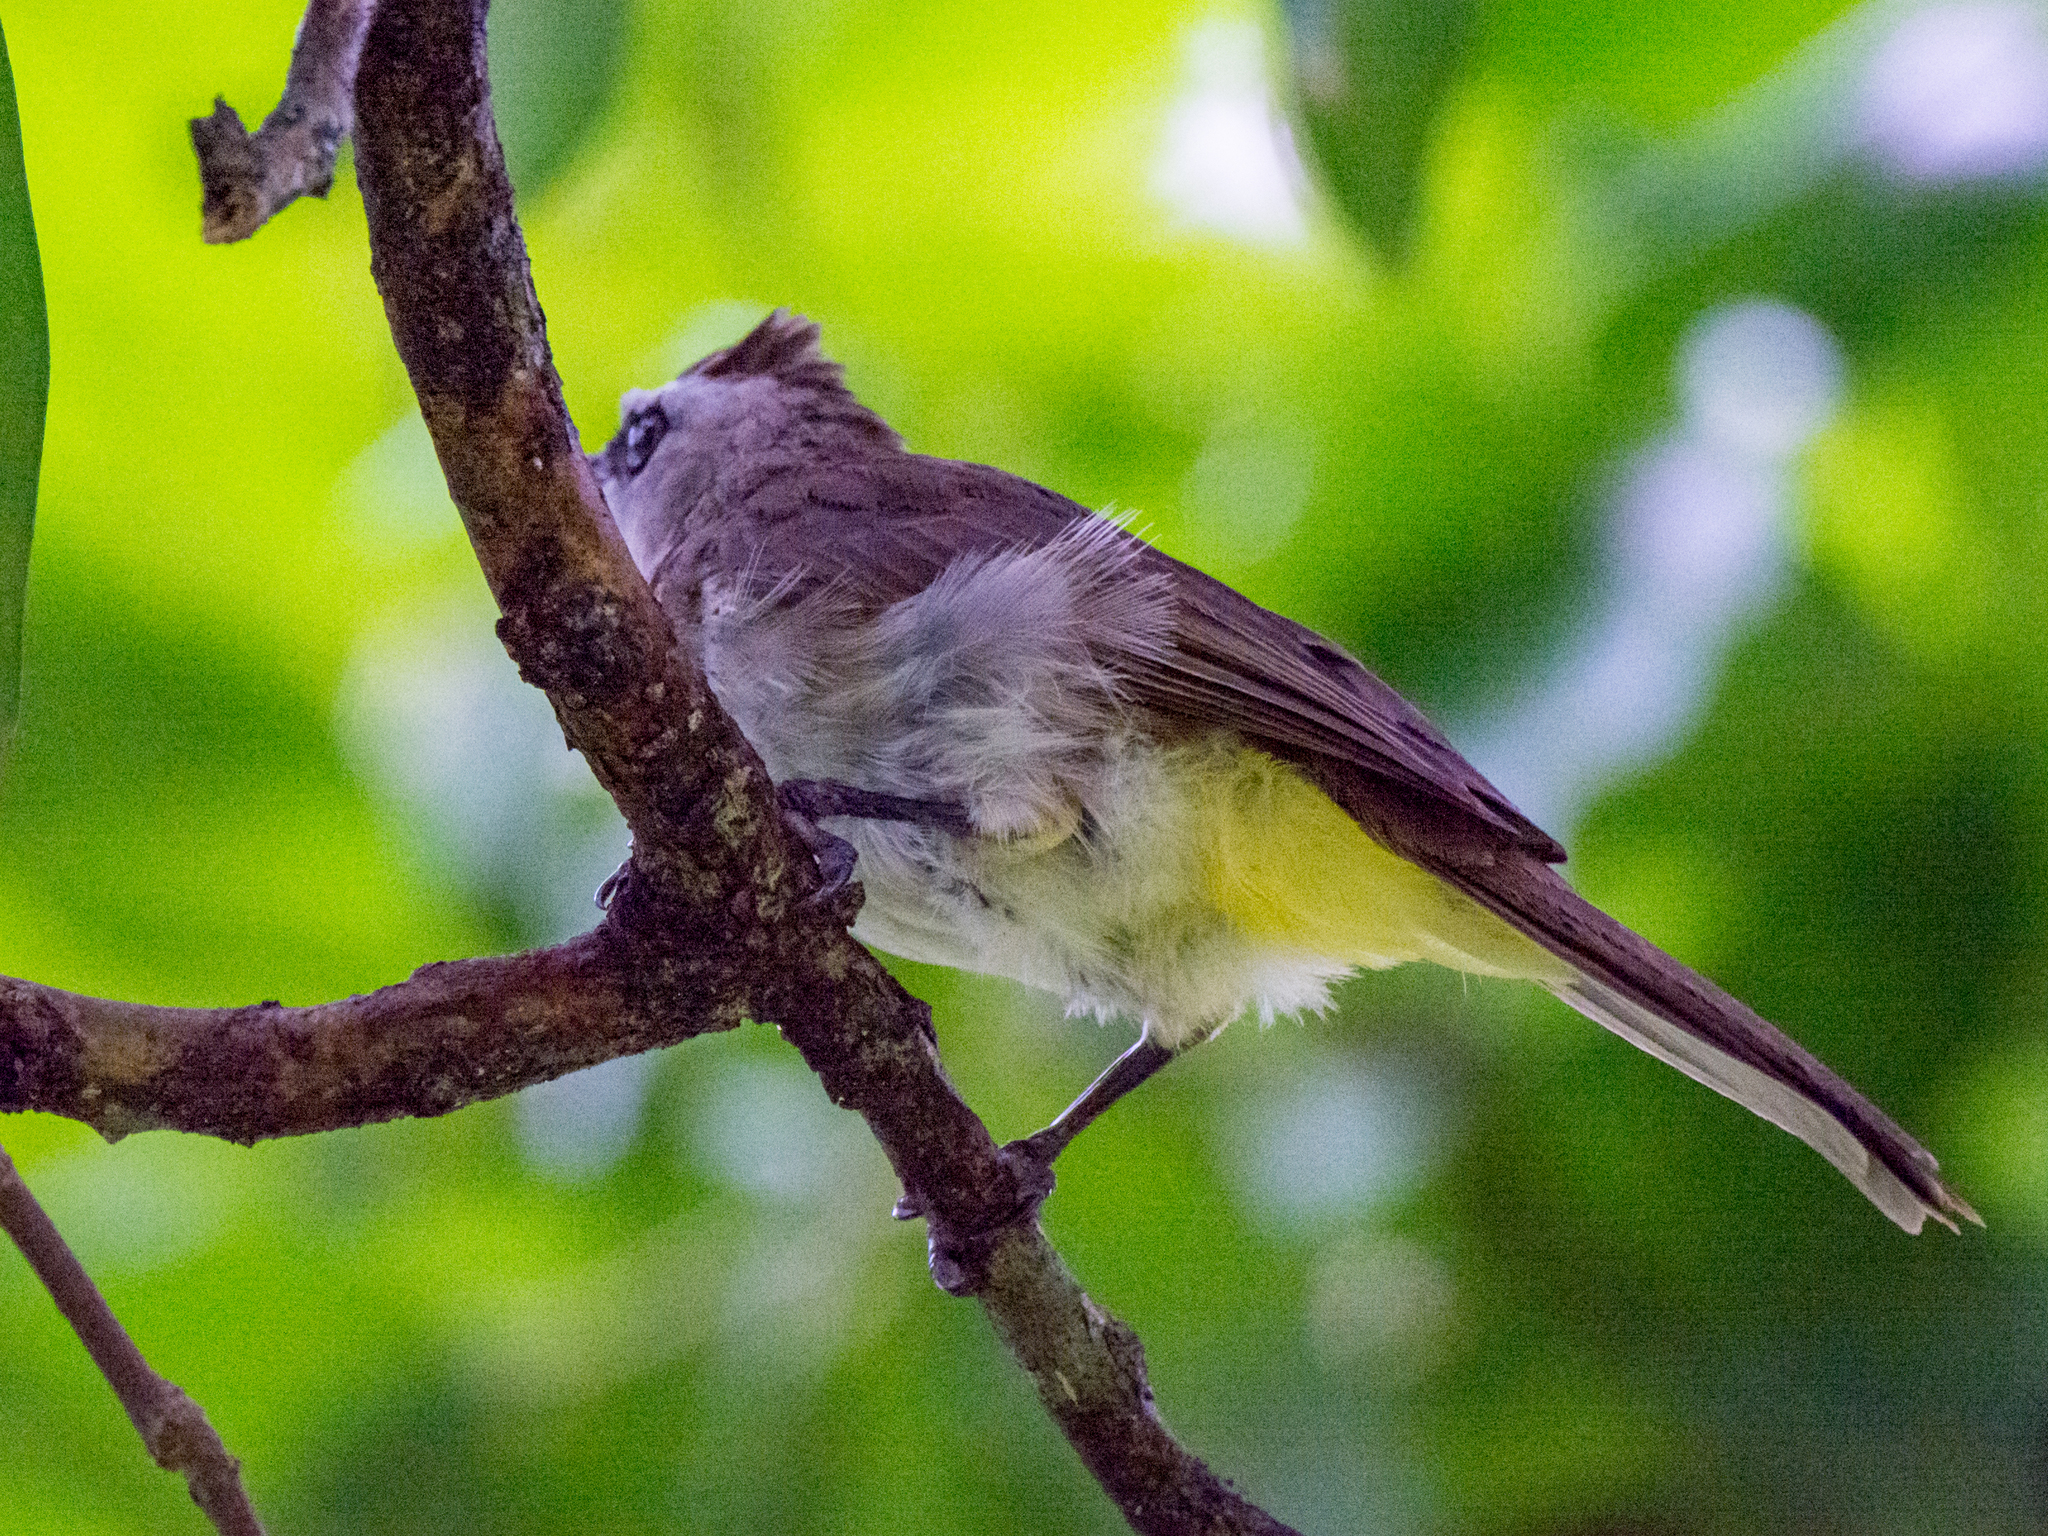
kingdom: Animalia
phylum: Chordata
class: Aves
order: Passeriformes
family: Pycnonotidae
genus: Pycnonotus
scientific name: Pycnonotus goiavier
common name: Yellow-vented bulbul
